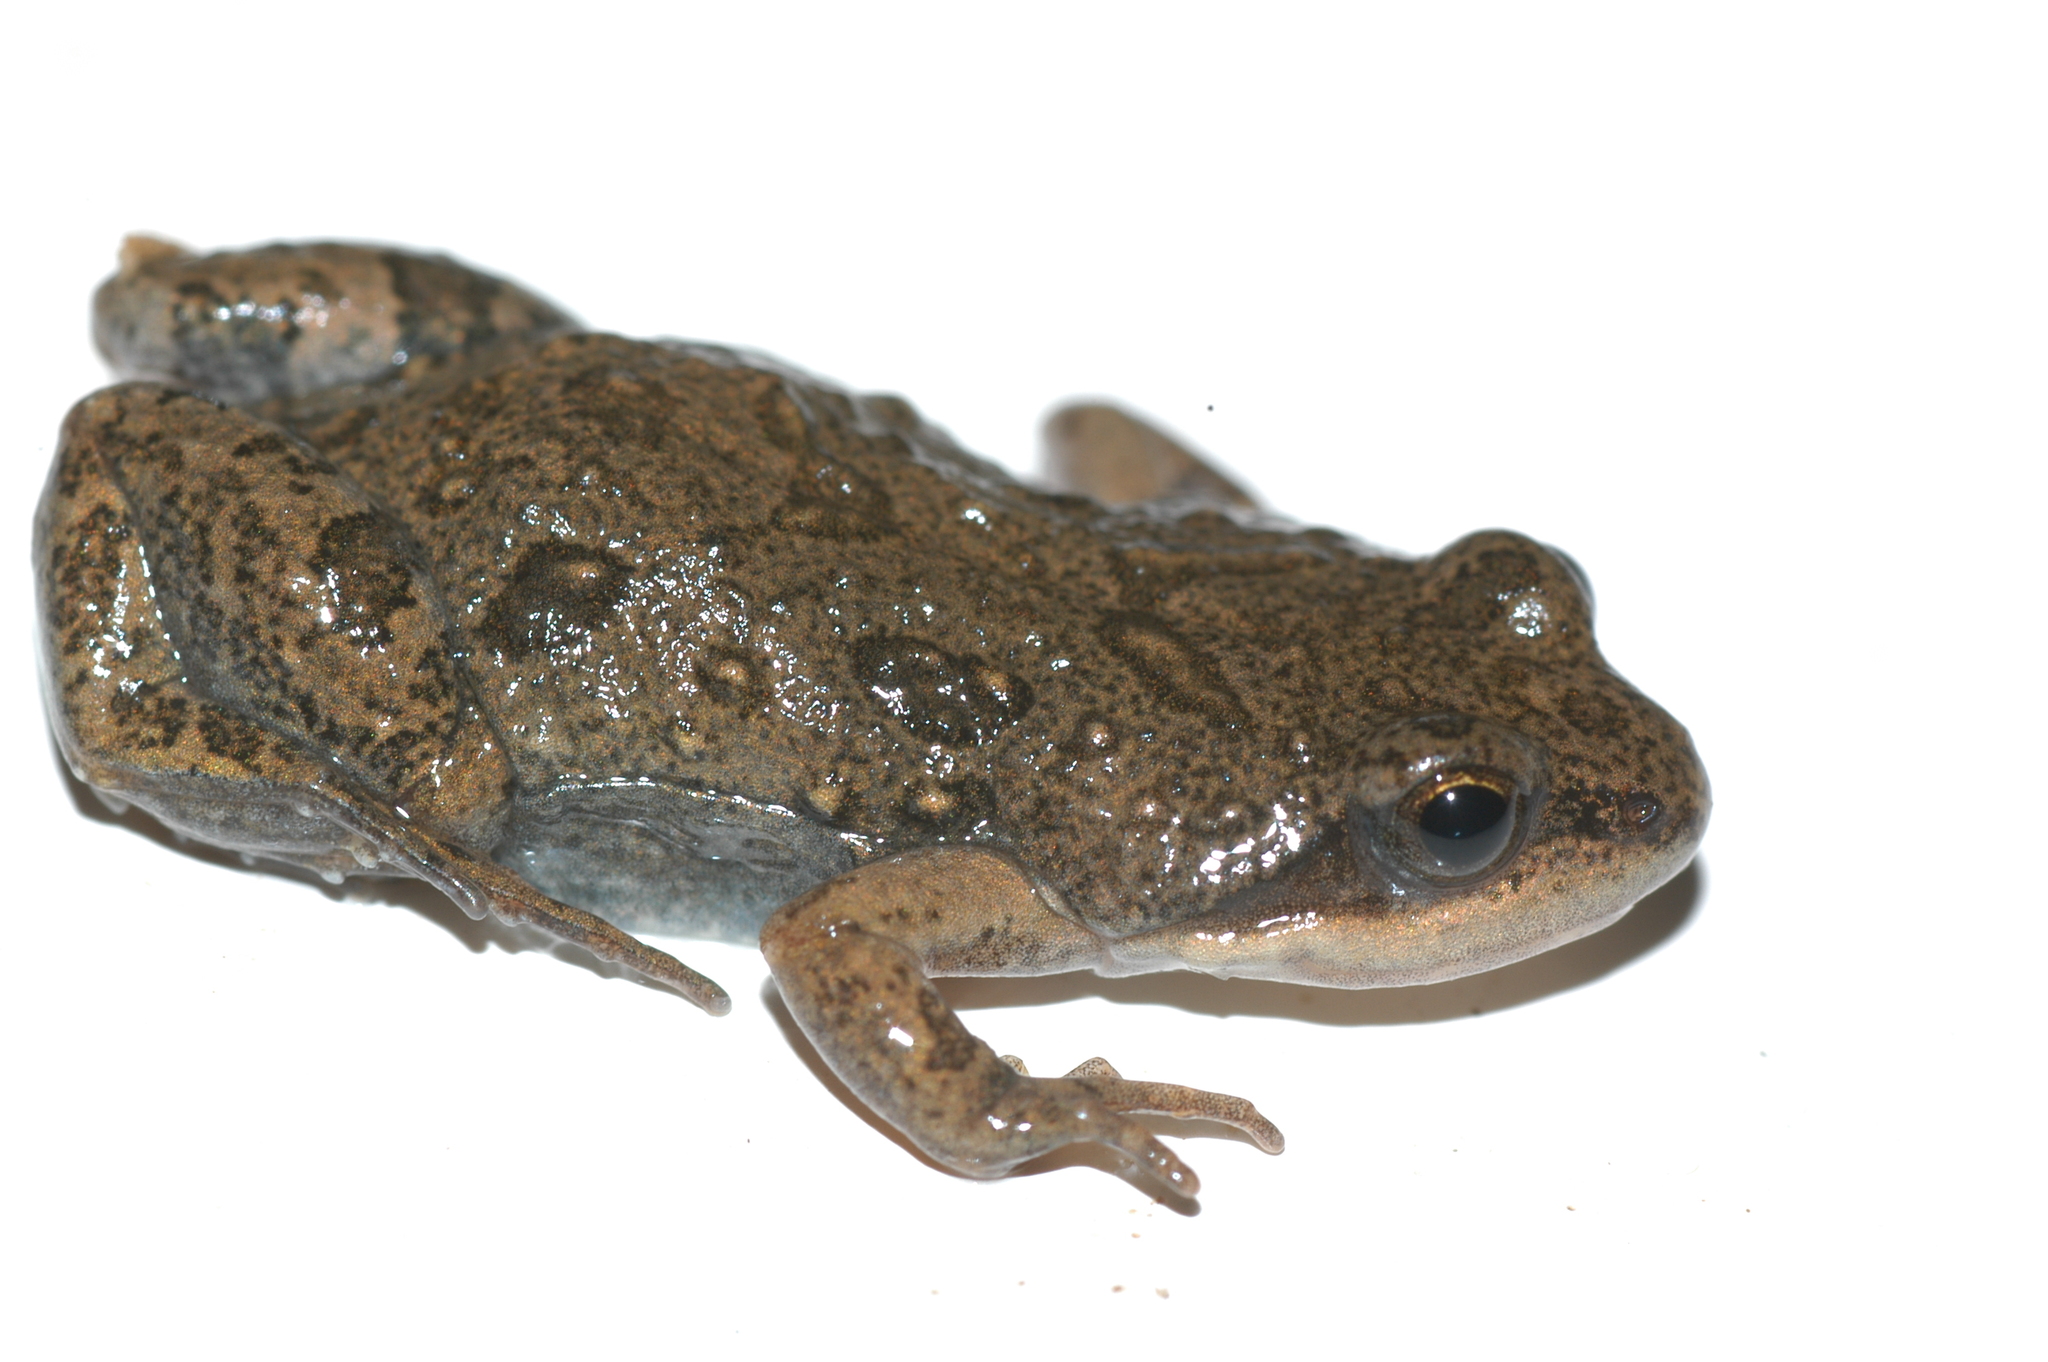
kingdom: Animalia
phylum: Chordata
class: Amphibia
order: Anura
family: Pyxicephalidae
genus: Cacosternum
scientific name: Cacosternum boettgeri
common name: Boettger's frog
